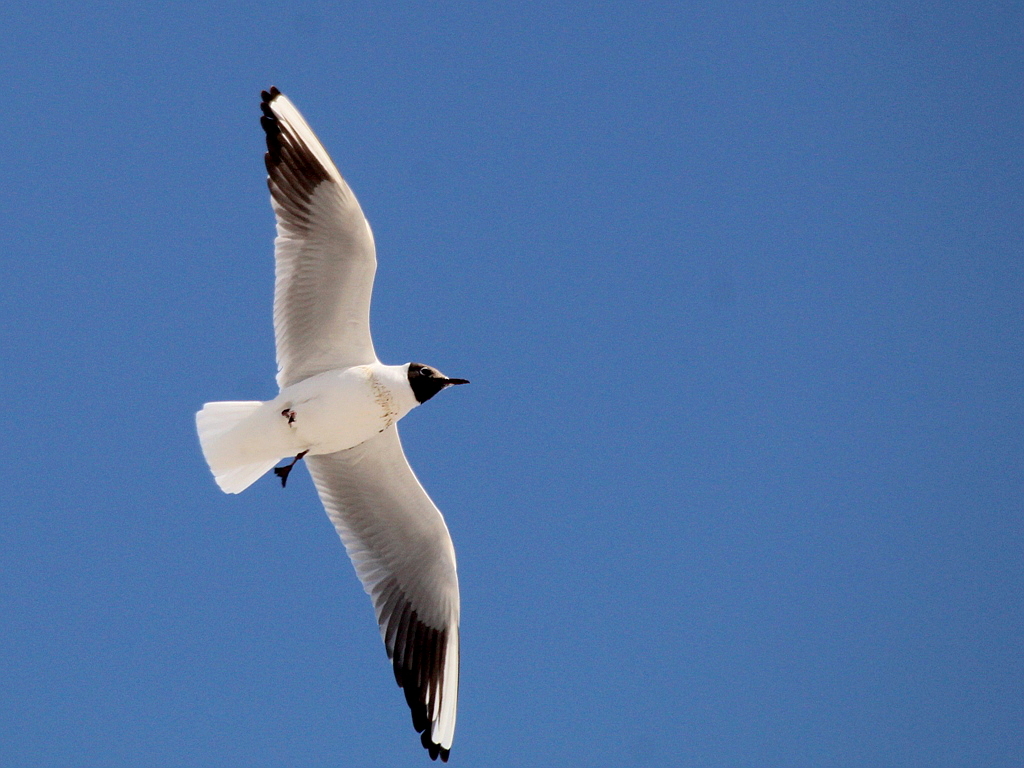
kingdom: Animalia
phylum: Chordata
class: Aves
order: Charadriiformes
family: Laridae
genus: Chroicocephalus
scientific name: Chroicocephalus ridibundus
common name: Black-headed gull
